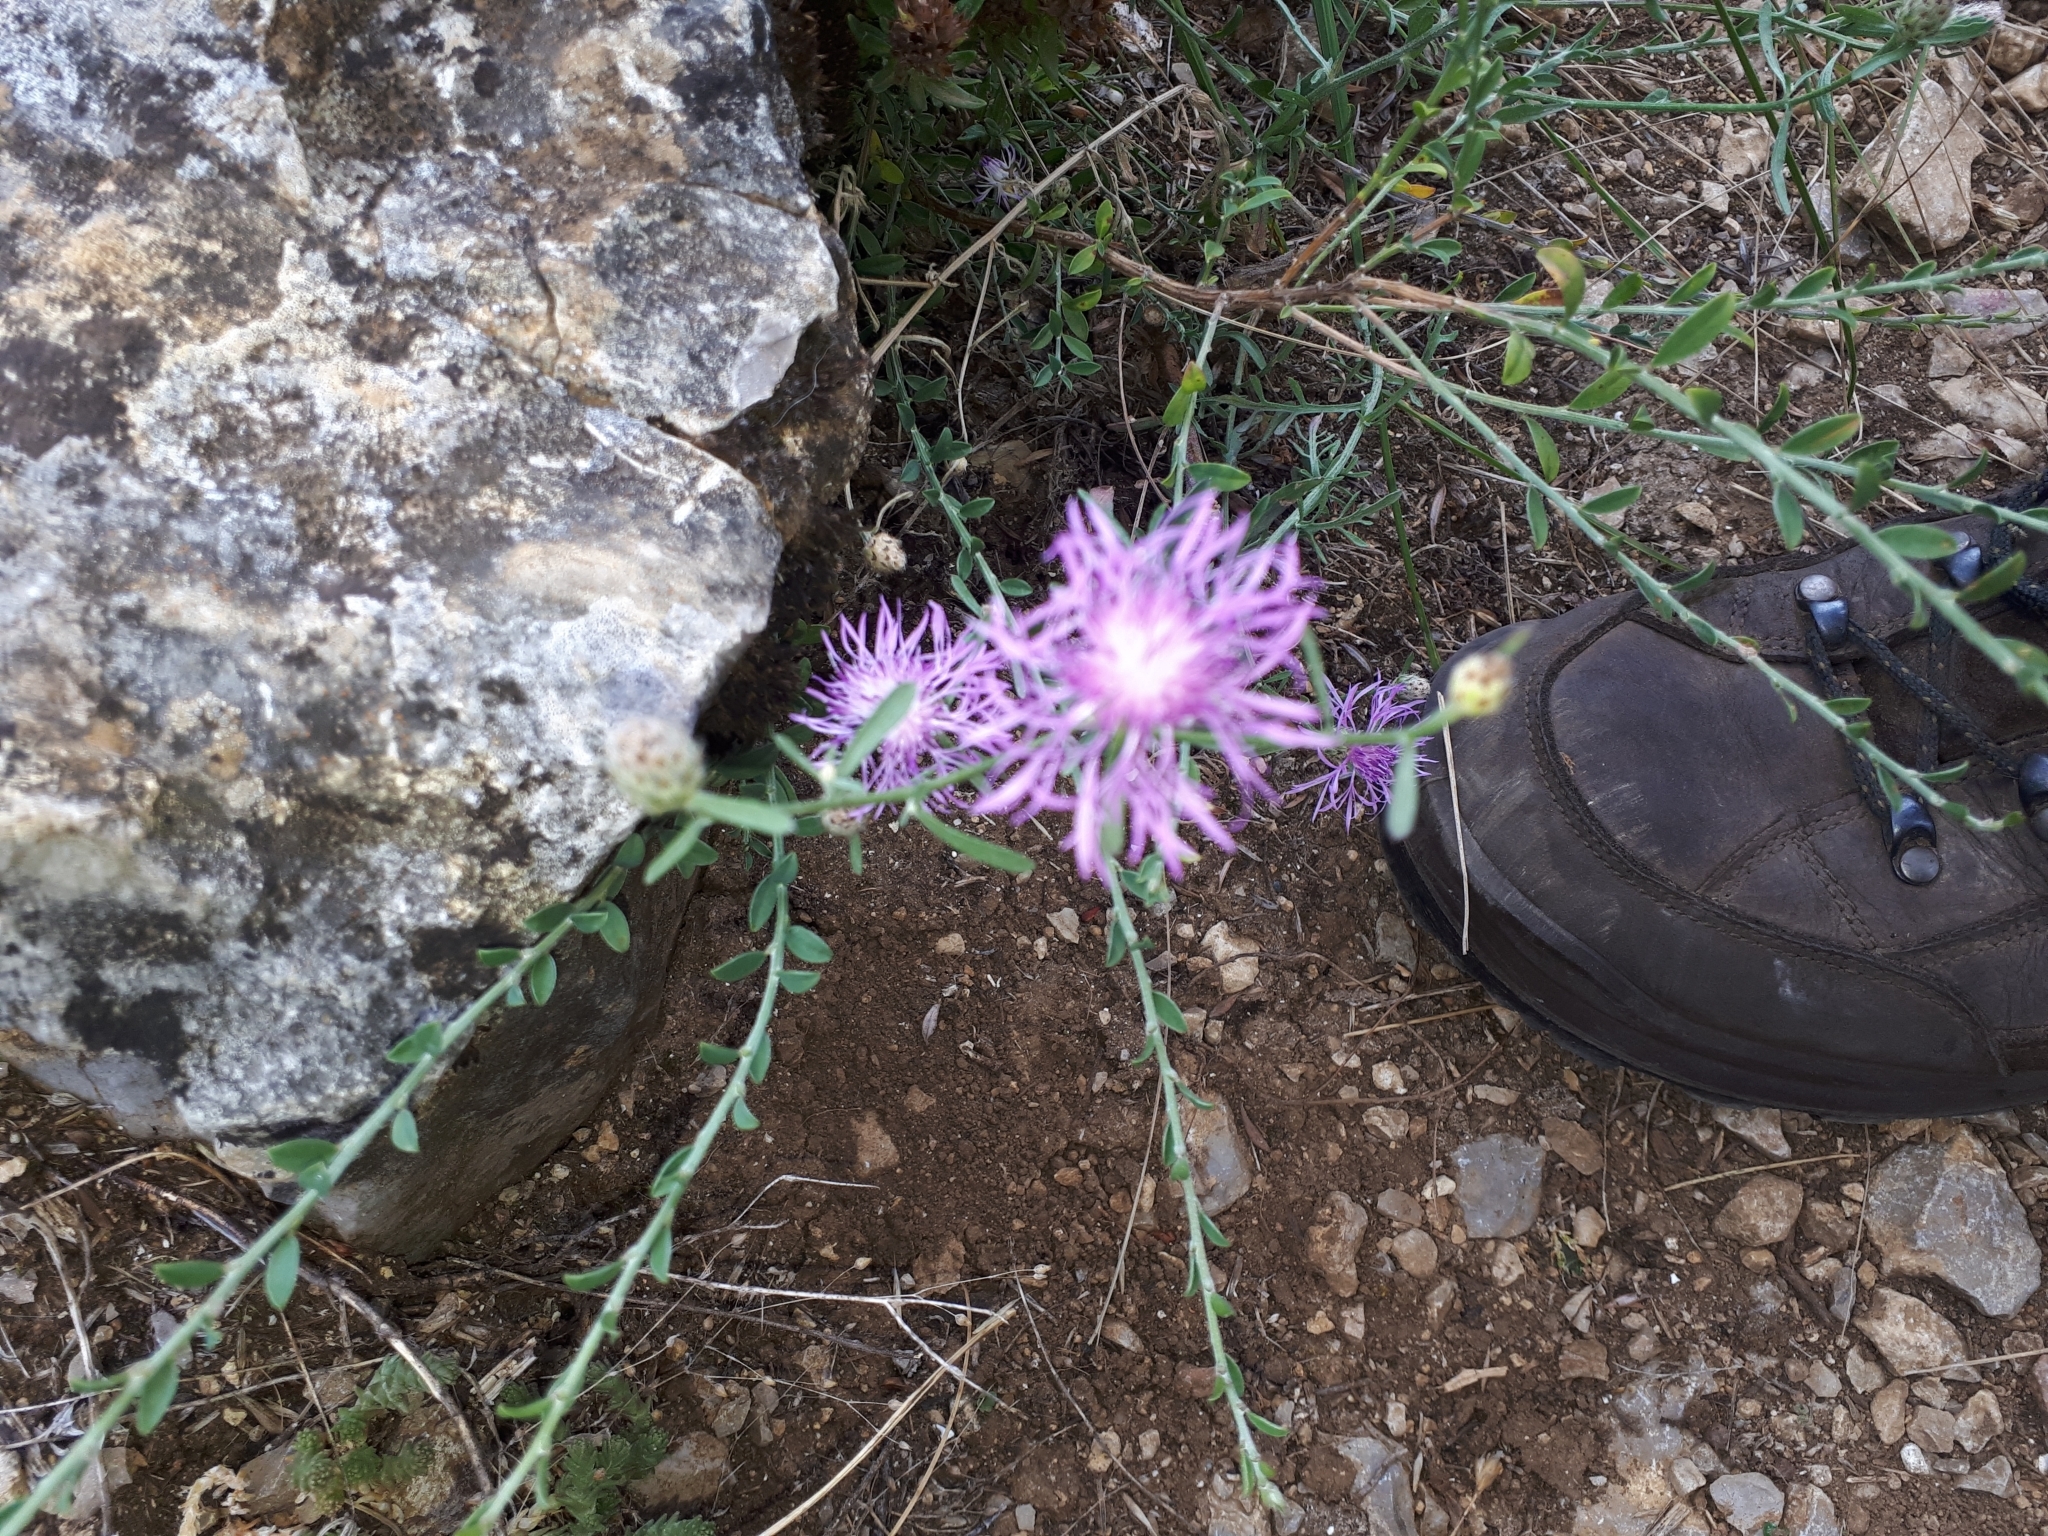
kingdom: Plantae
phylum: Tracheophyta
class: Magnoliopsida
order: Asterales
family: Asteraceae
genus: Centaurea
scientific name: Centaurea stoebe
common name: Spotted knapweed
